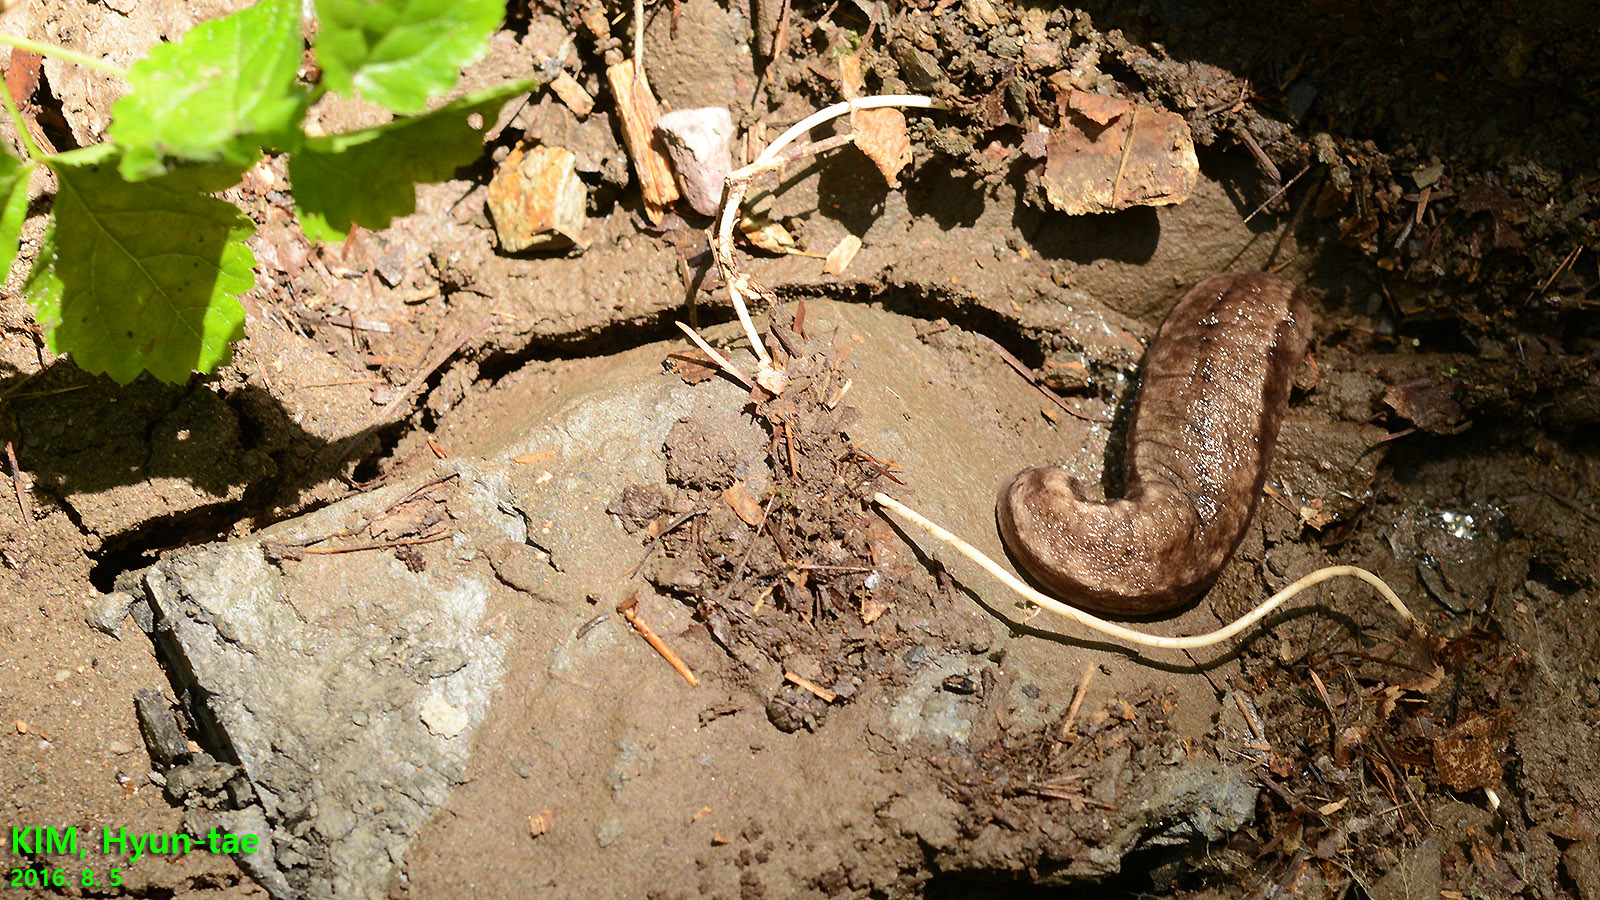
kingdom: Animalia
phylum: Mollusca
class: Gastropoda
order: Stylommatophora
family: Philomycidae
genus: Meghimatium
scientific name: Meghimatium fruhstorferi
